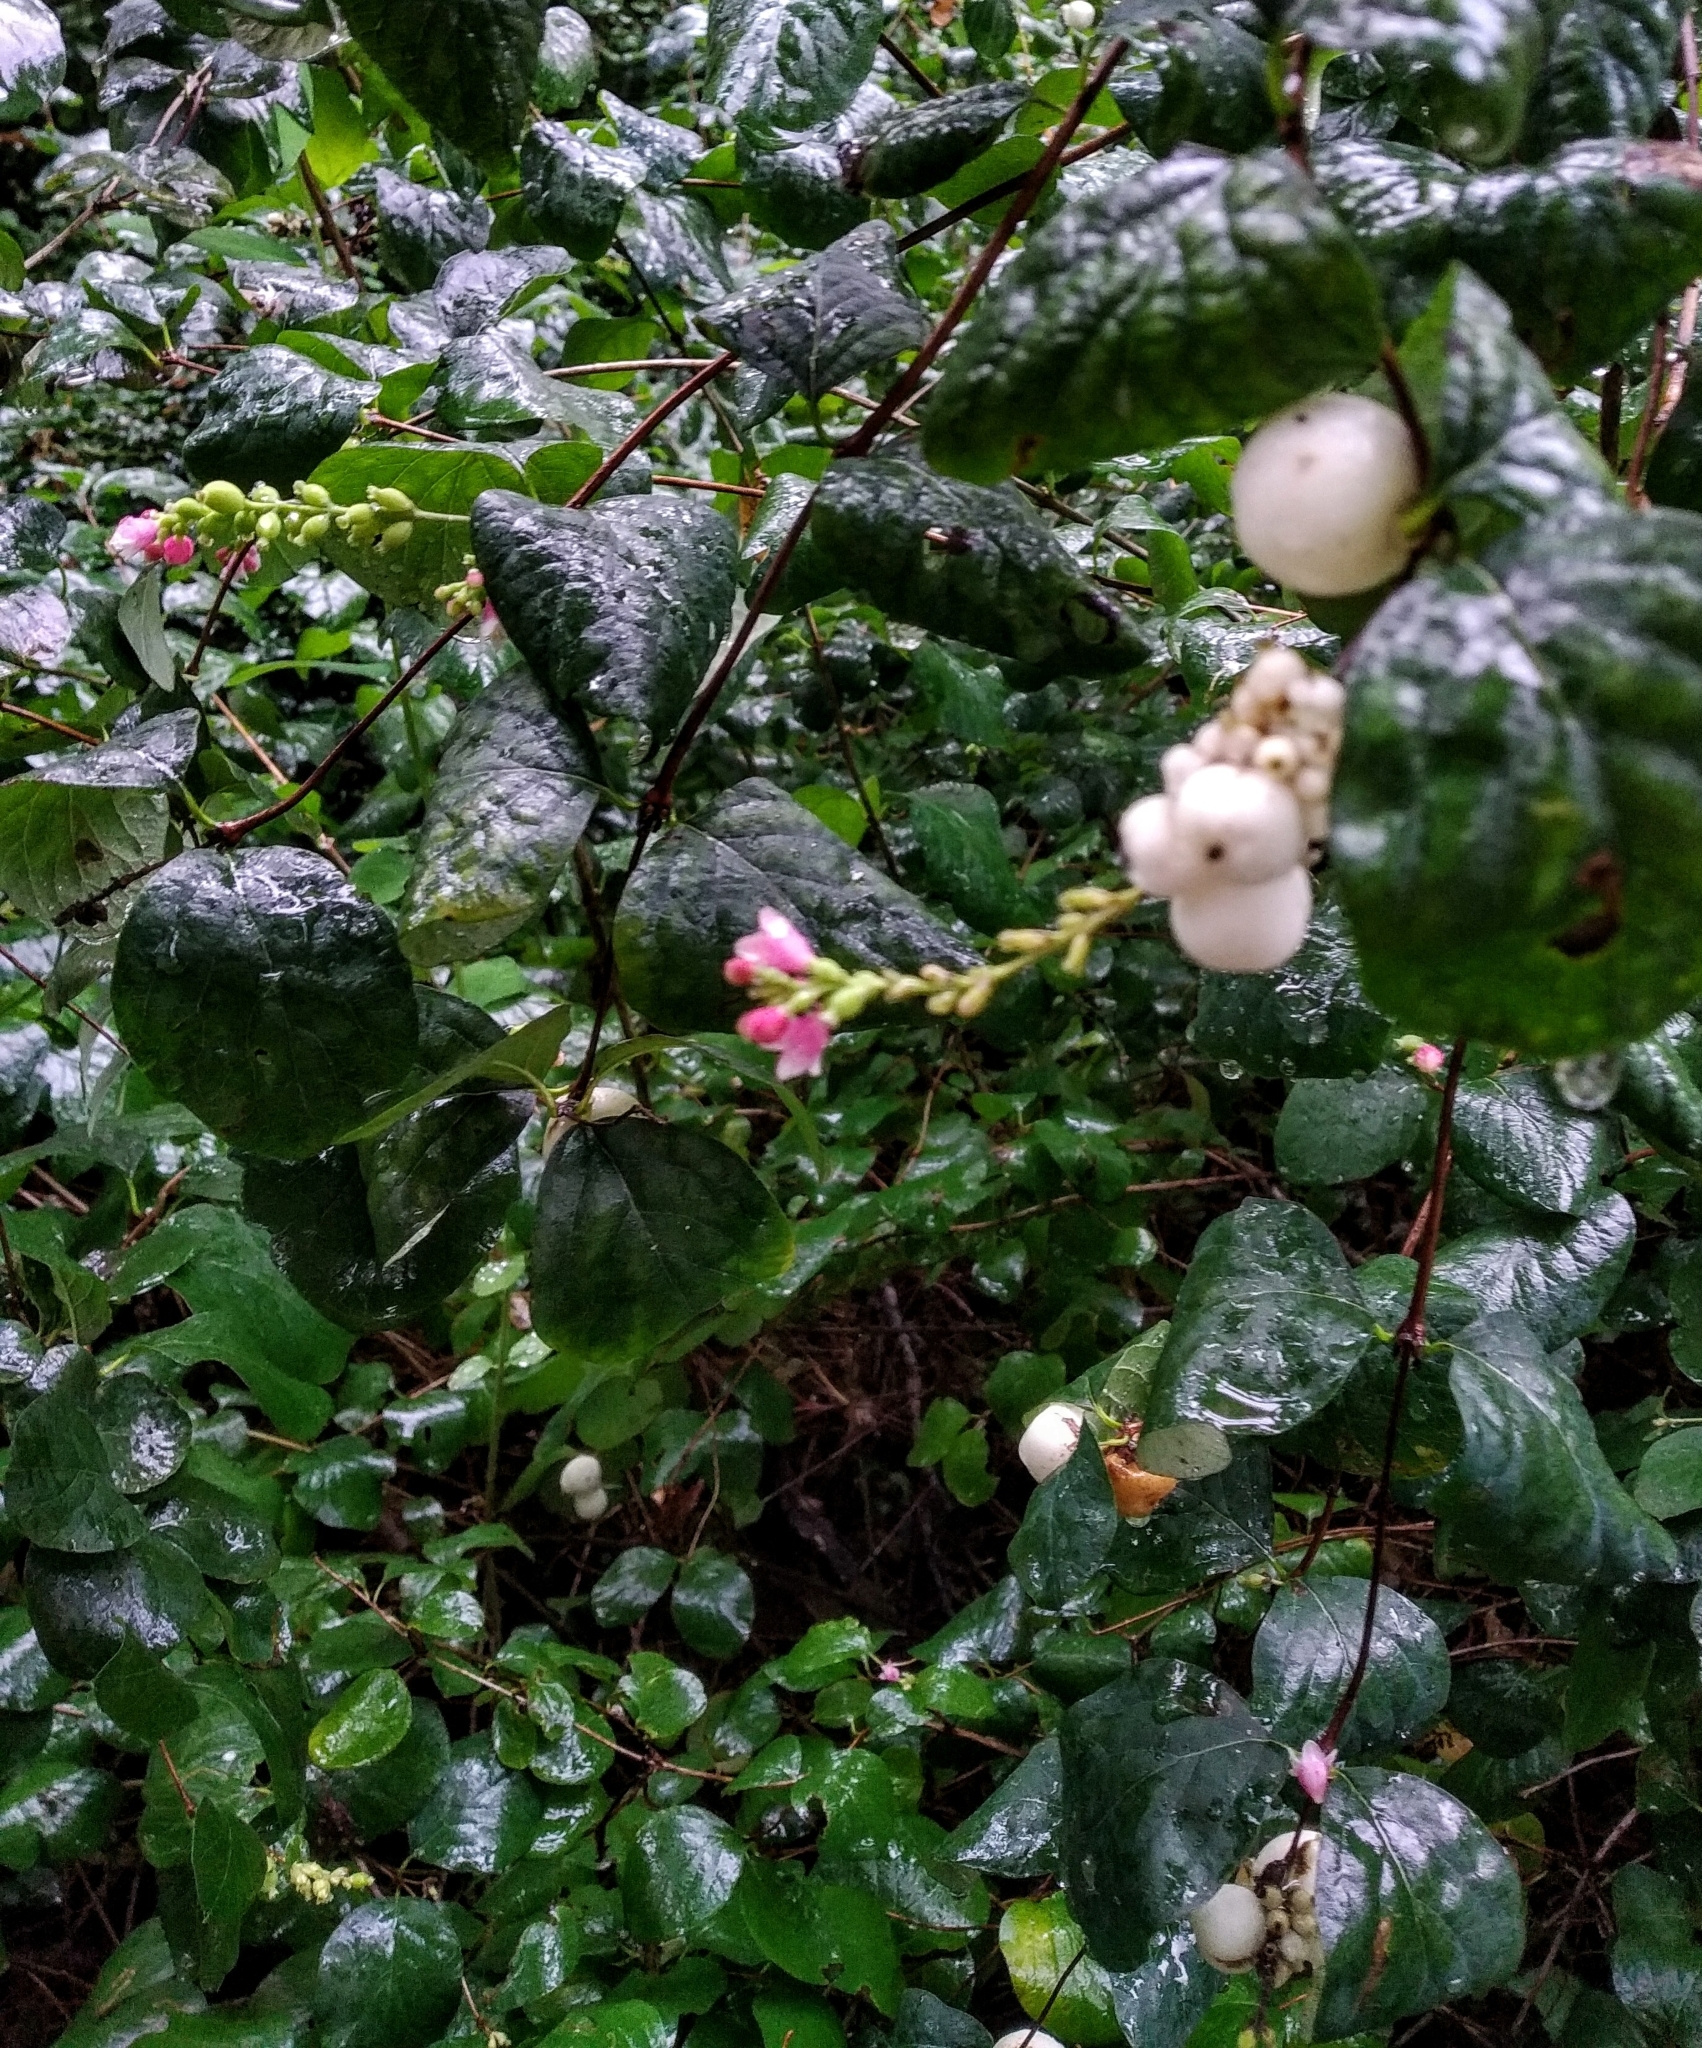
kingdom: Plantae
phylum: Tracheophyta
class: Magnoliopsida
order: Dipsacales
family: Caprifoliaceae
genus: Symphoricarpos
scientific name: Symphoricarpos albus
